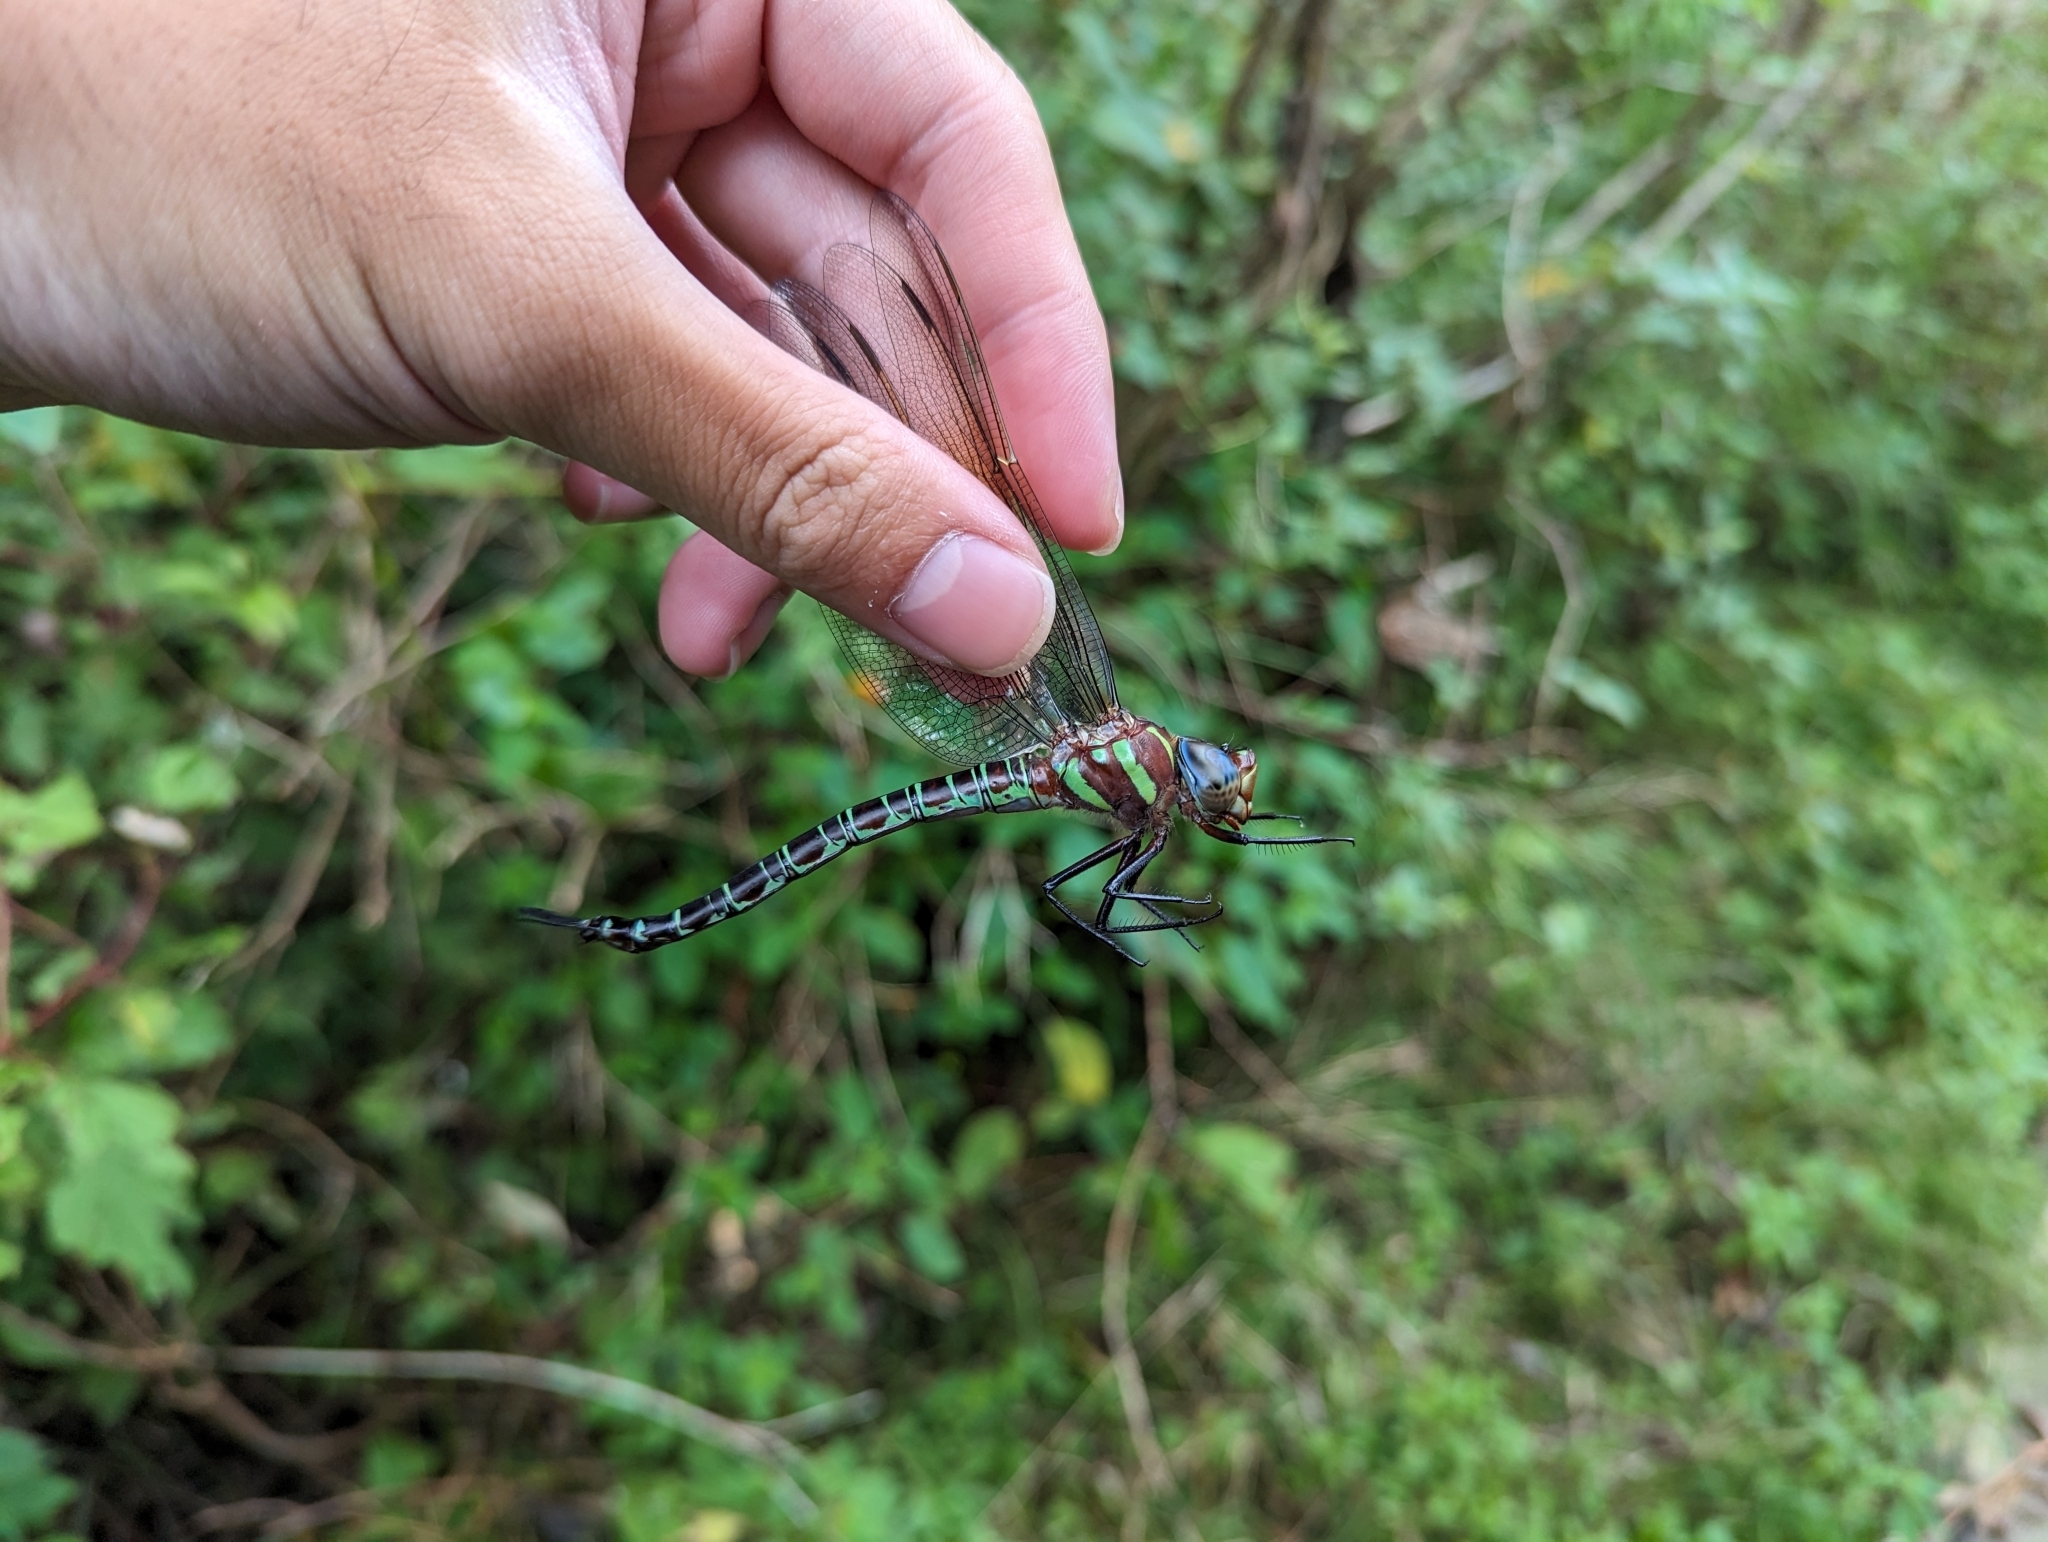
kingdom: Animalia
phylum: Arthropoda
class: Insecta
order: Odonata
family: Aeshnidae
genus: Epiaeschna
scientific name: Epiaeschna heros
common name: Swamp darner
